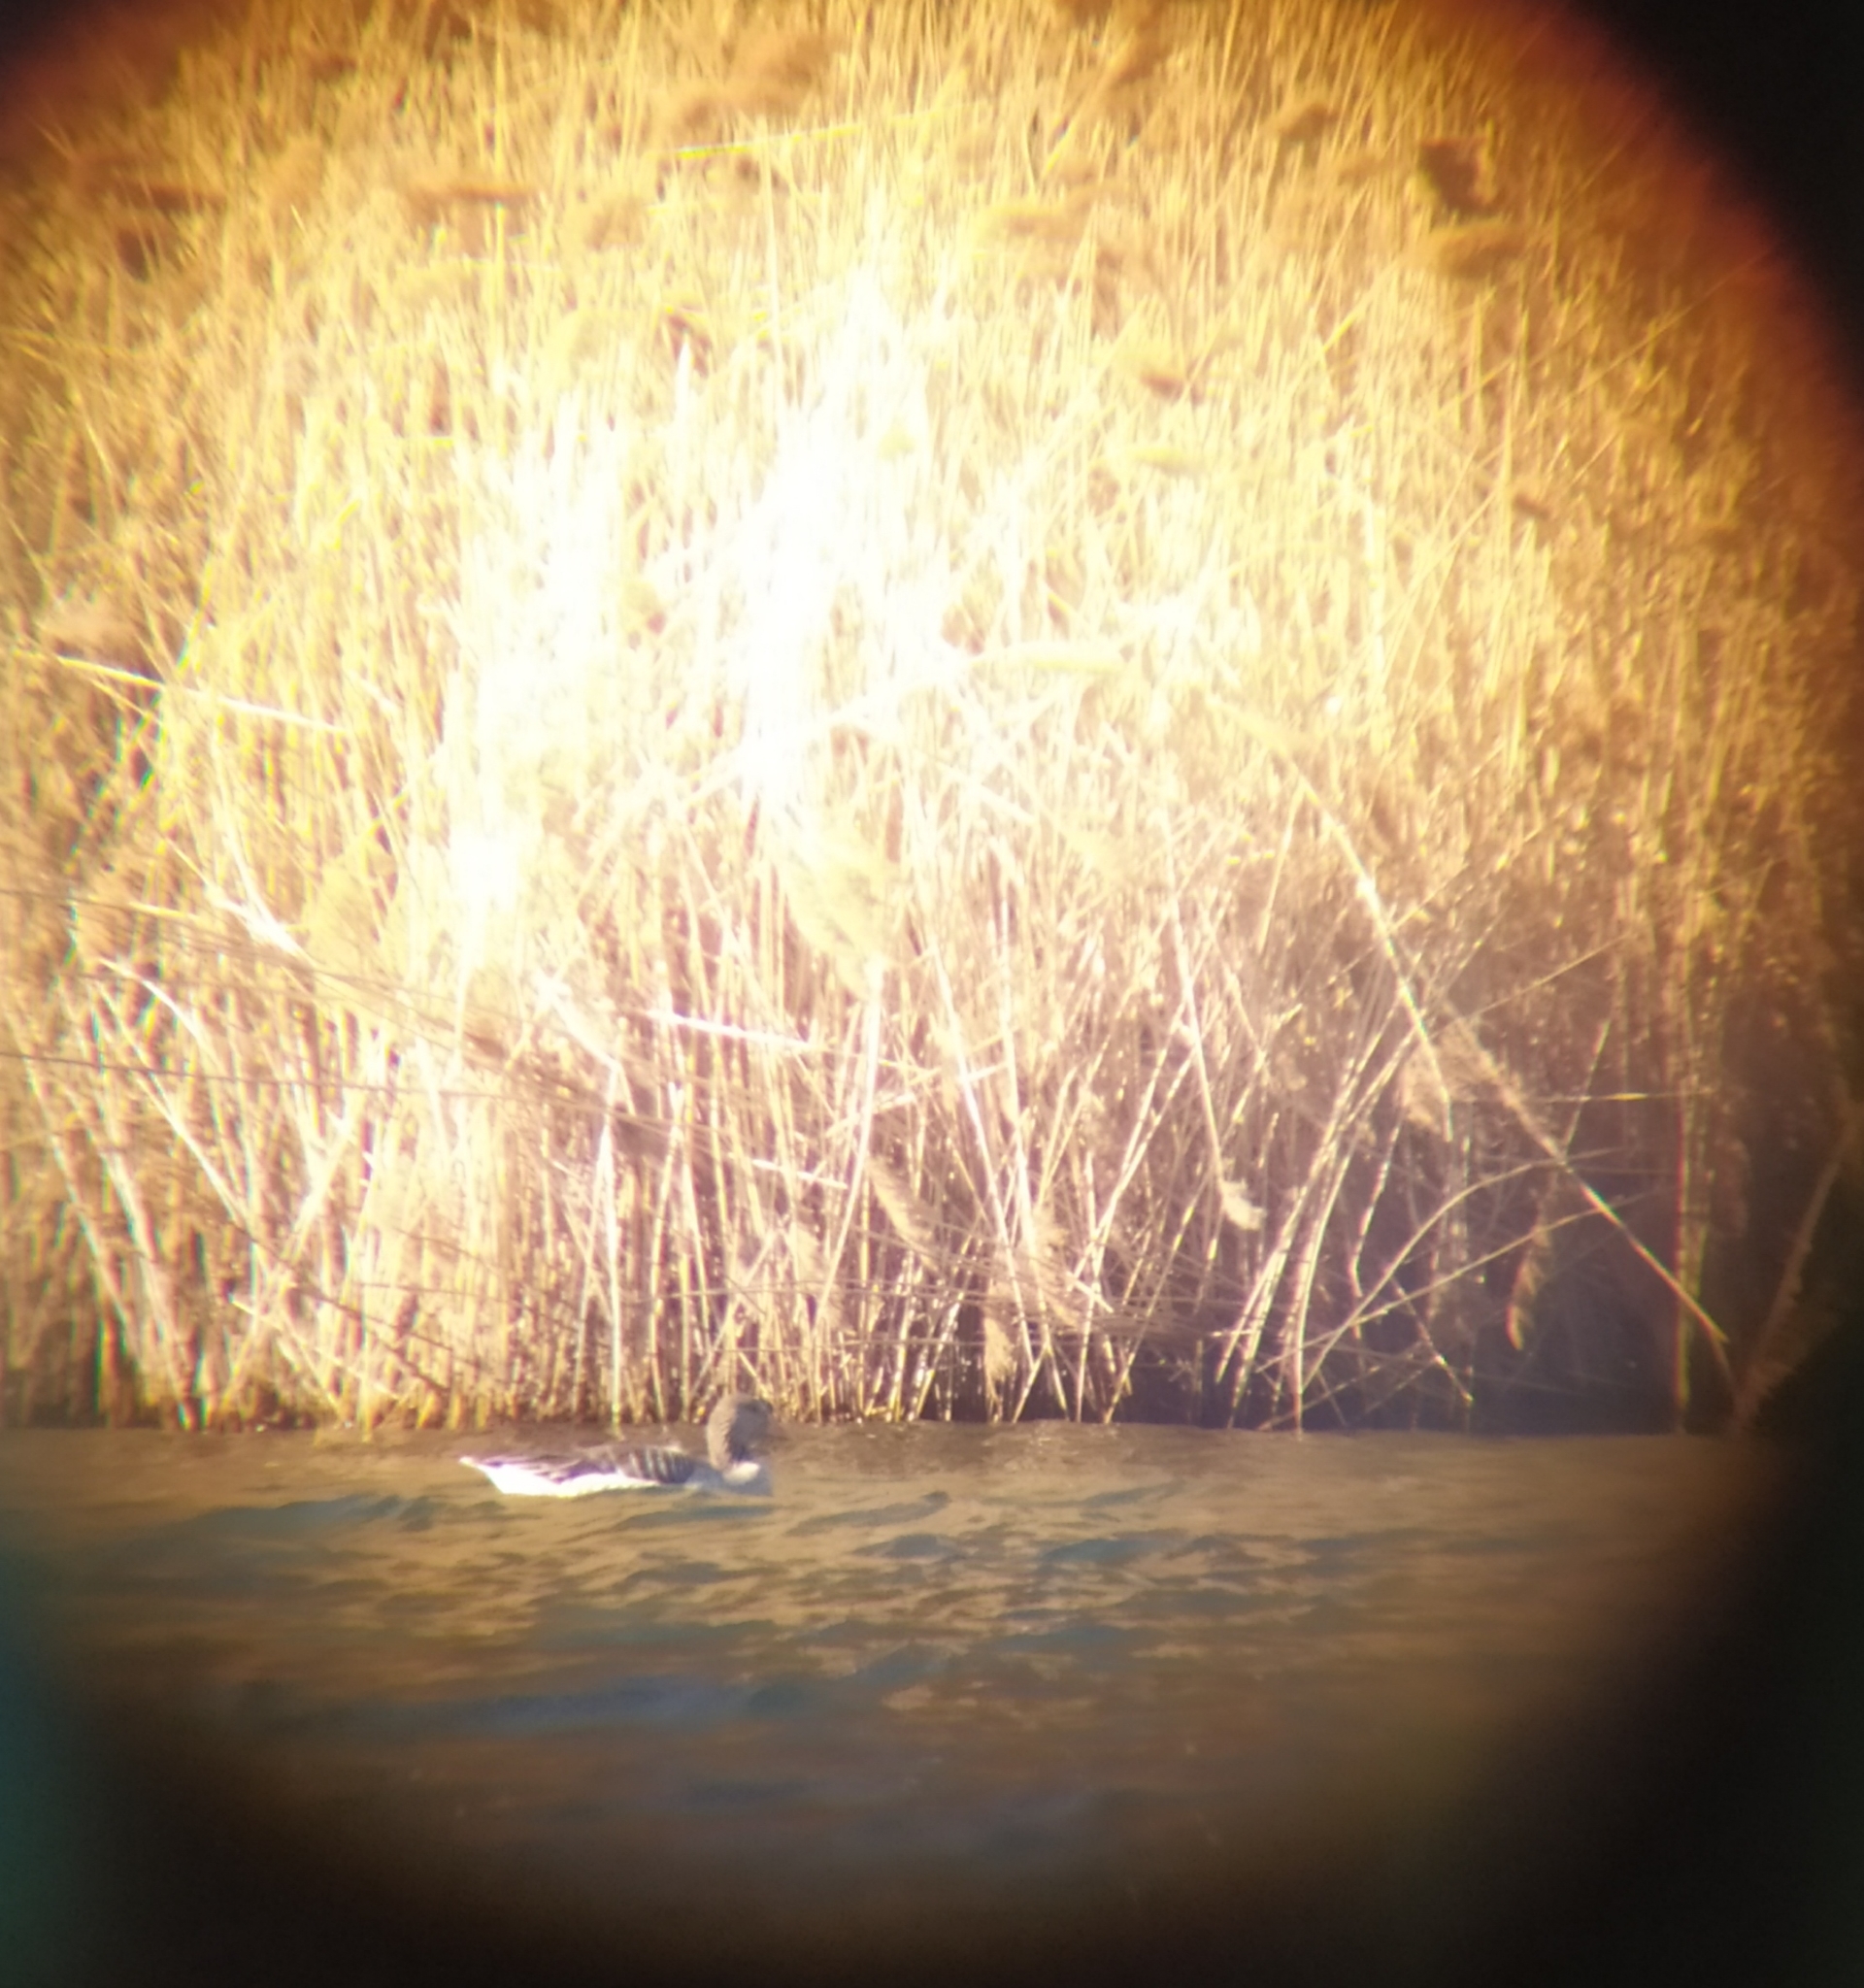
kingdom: Animalia
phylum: Chordata
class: Aves
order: Anseriformes
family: Anatidae
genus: Anser
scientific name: Anser anser
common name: Greylag goose
